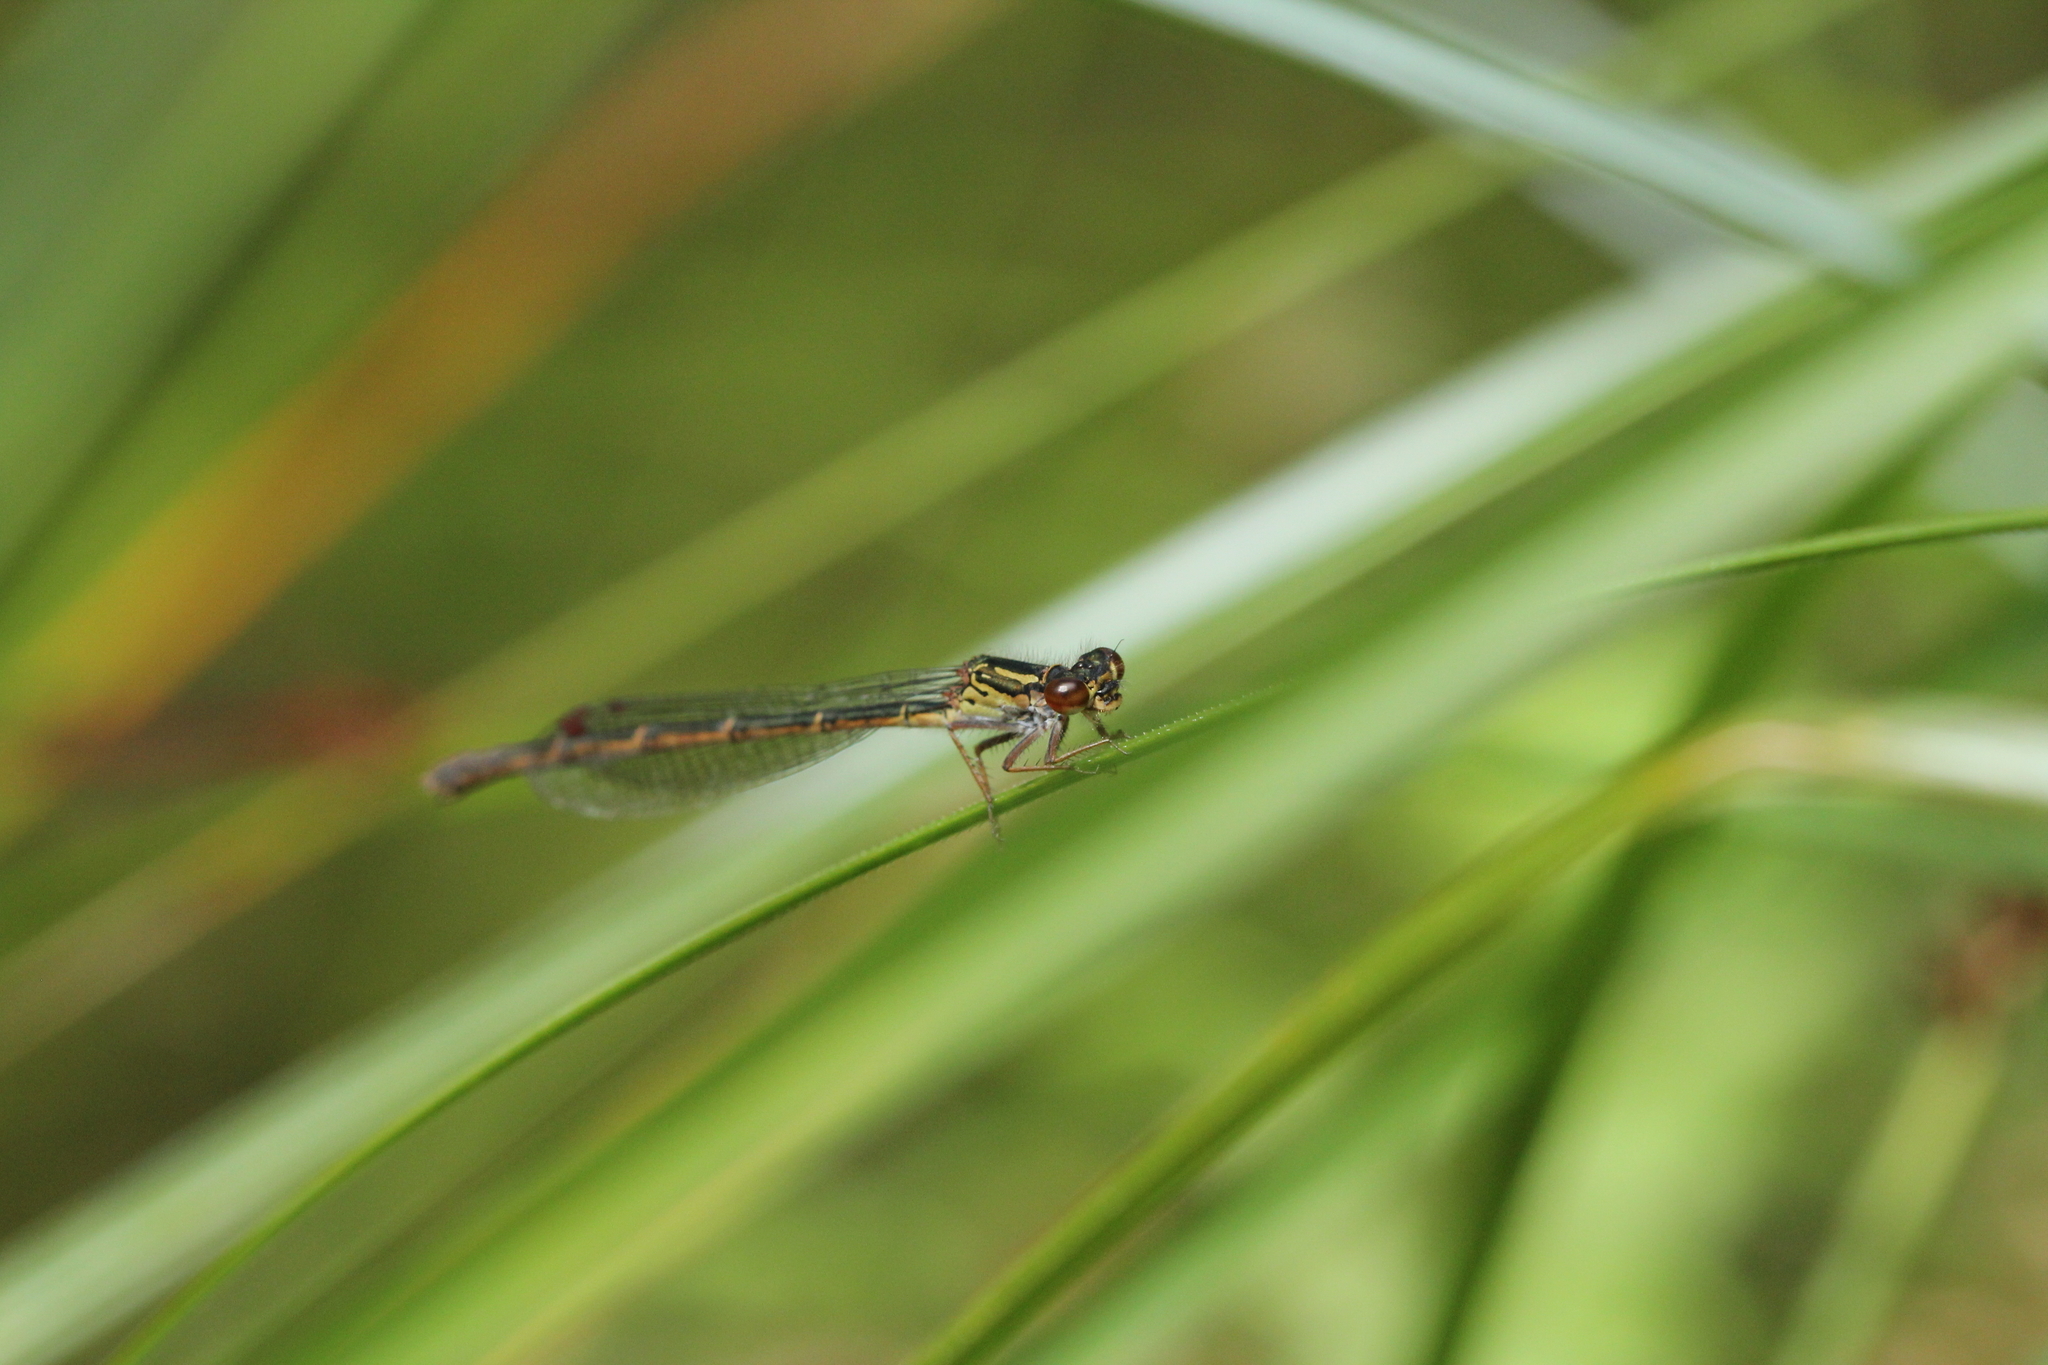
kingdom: Animalia
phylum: Arthropoda
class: Insecta
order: Odonata
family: Coenagrionidae
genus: Xanthocnemis
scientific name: Xanthocnemis zealandica
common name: Common redcoat damselfly
